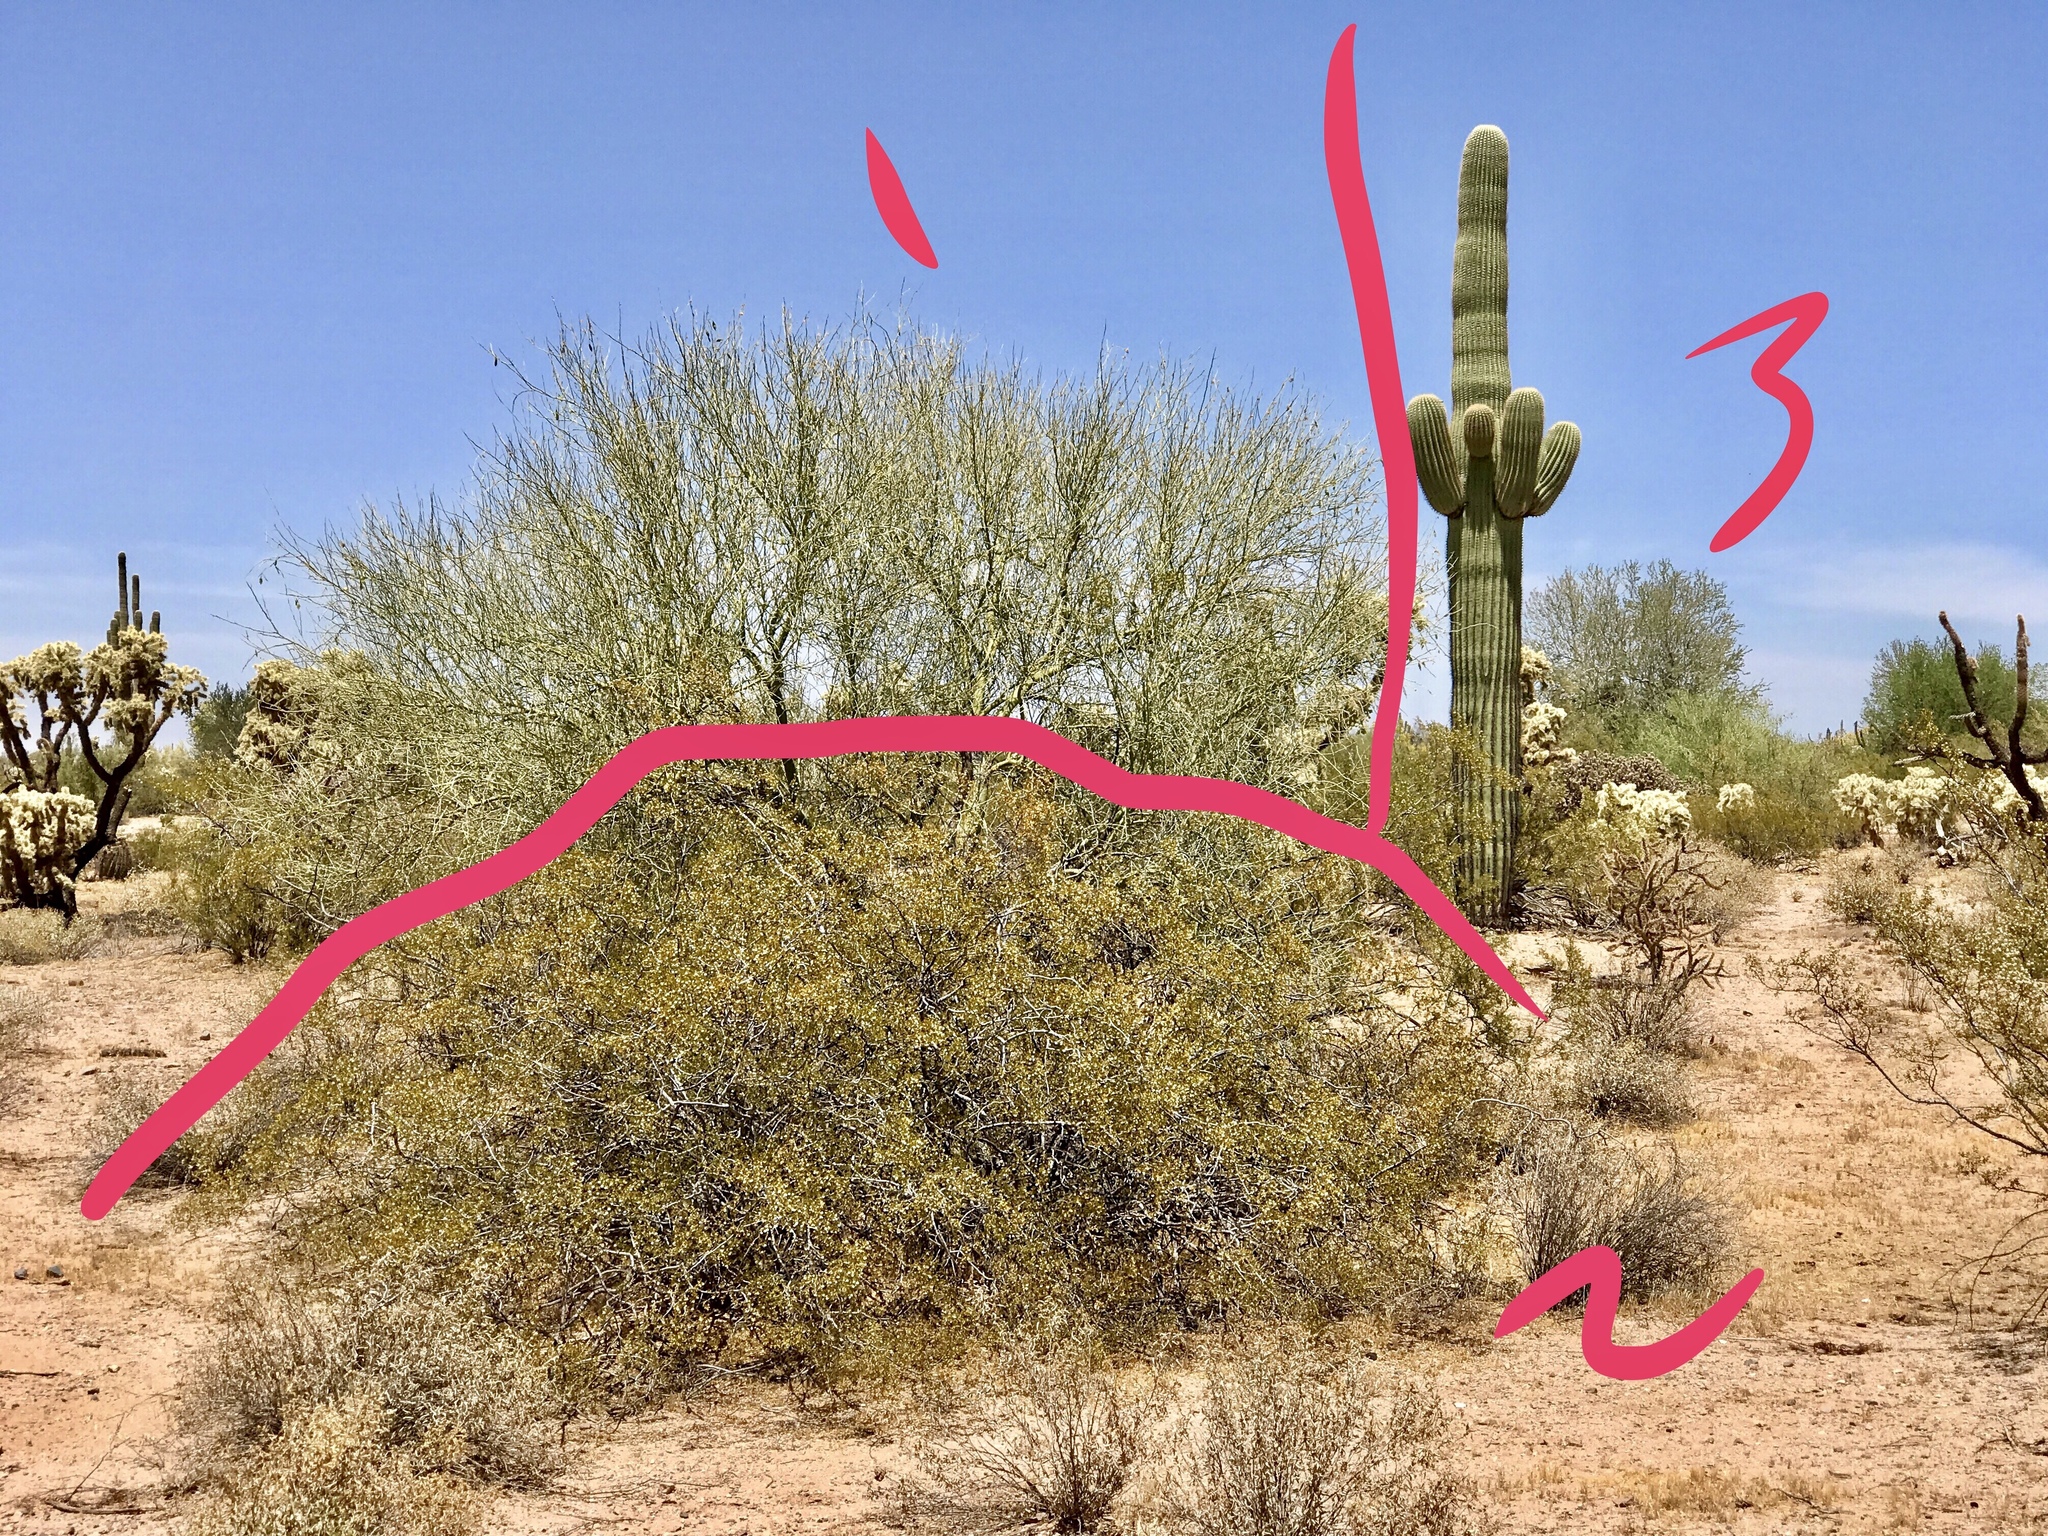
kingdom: Plantae
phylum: Tracheophyta
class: Magnoliopsida
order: Caryophyllales
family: Cactaceae
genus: Carnegiea
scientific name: Carnegiea gigantea
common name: Saguaro
